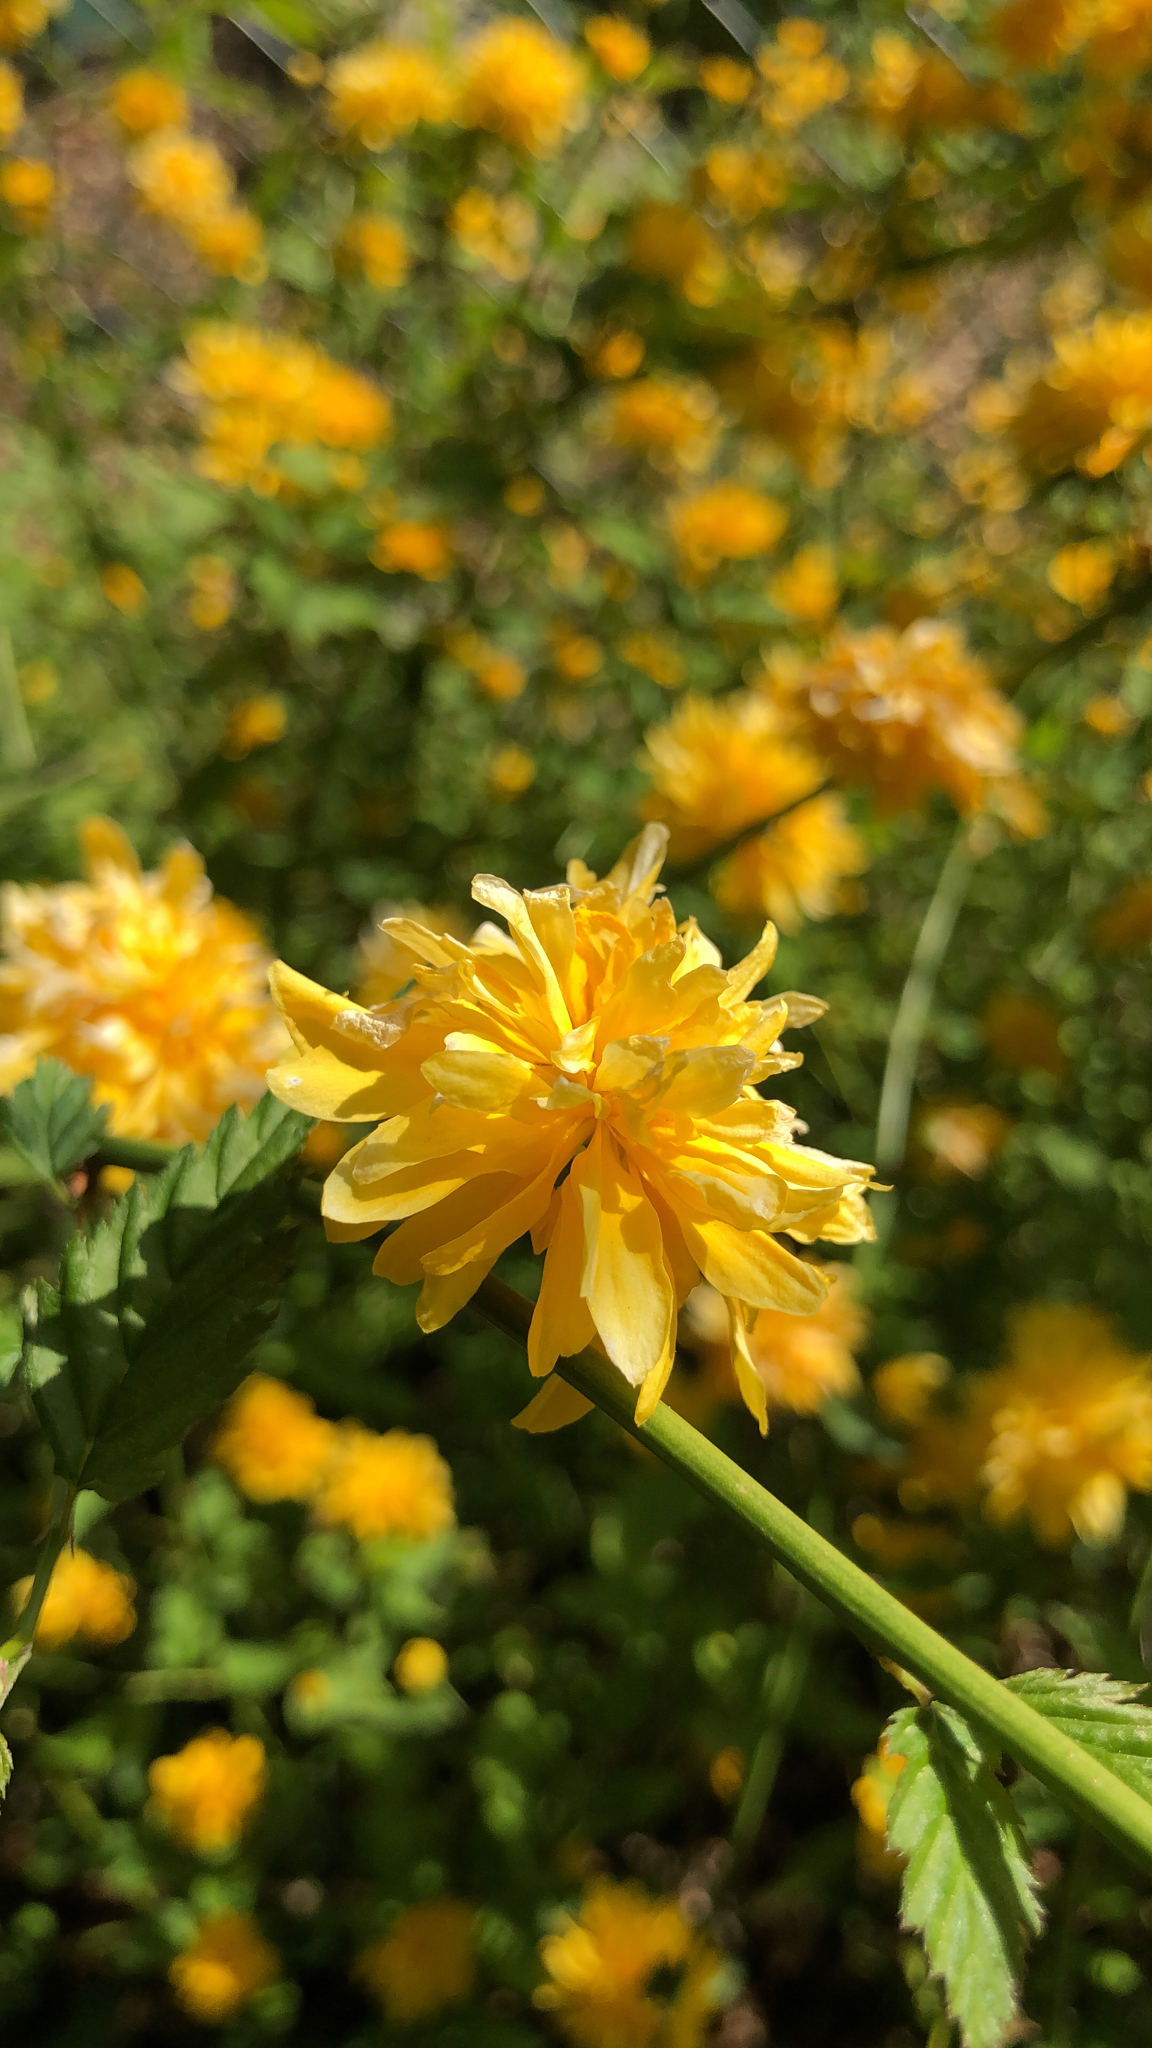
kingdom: Plantae
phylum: Tracheophyta
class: Magnoliopsida
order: Rosales
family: Rosaceae
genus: Kerria
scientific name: Kerria japonica
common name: Japanese kerria
